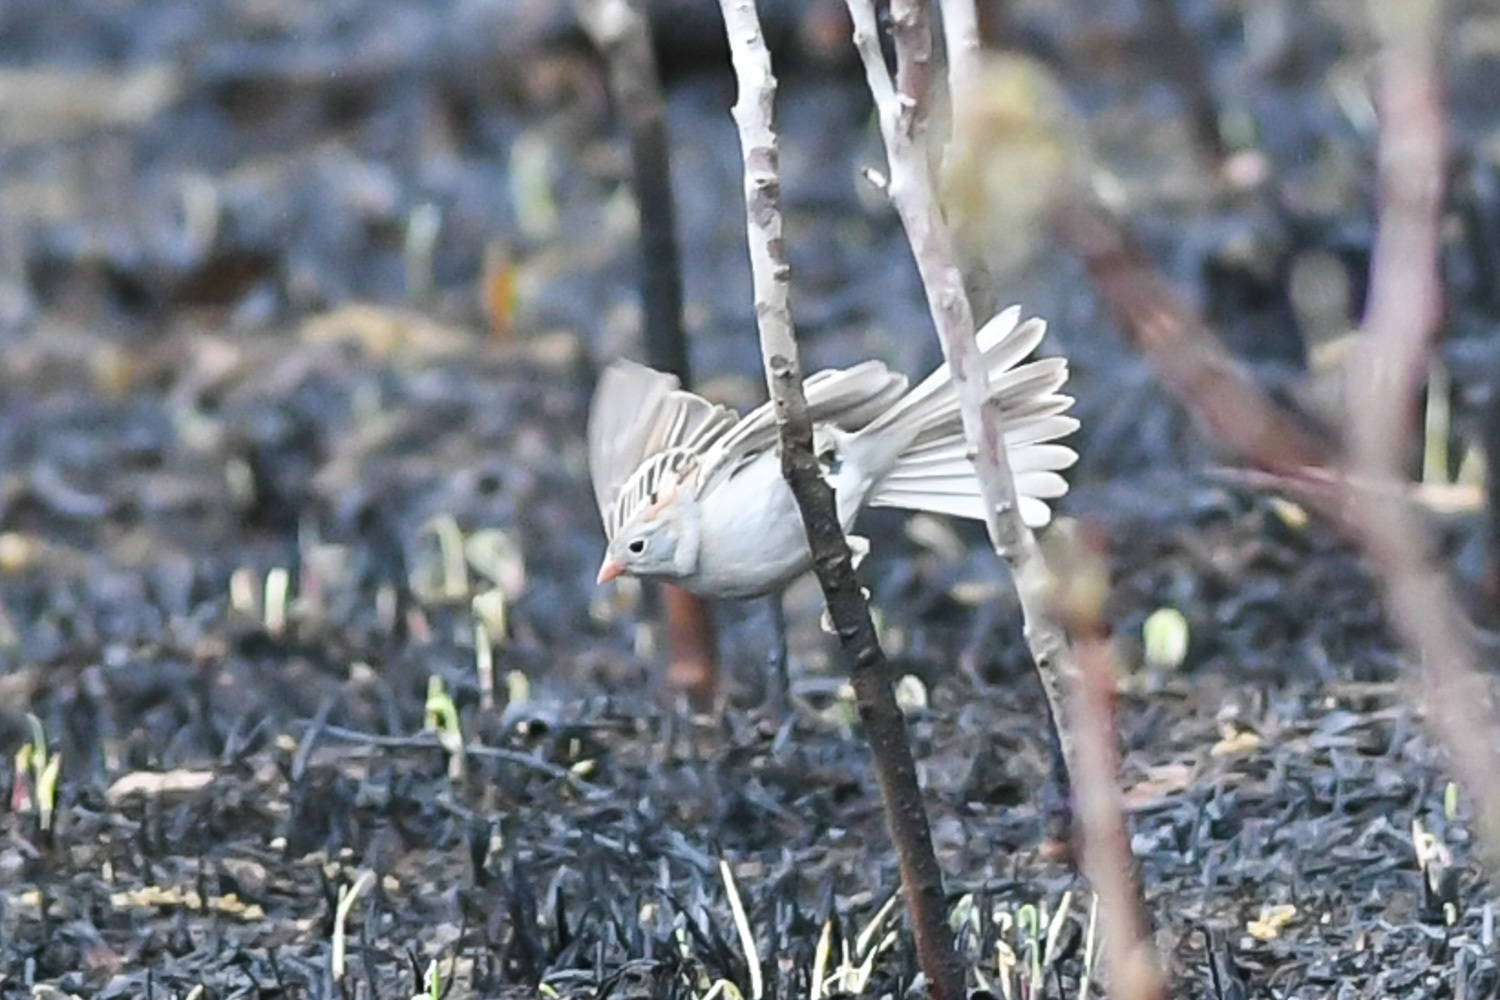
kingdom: Animalia
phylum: Chordata
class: Aves
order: Passeriformes
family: Passerellidae
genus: Spizella
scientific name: Spizella pusilla
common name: Field sparrow
